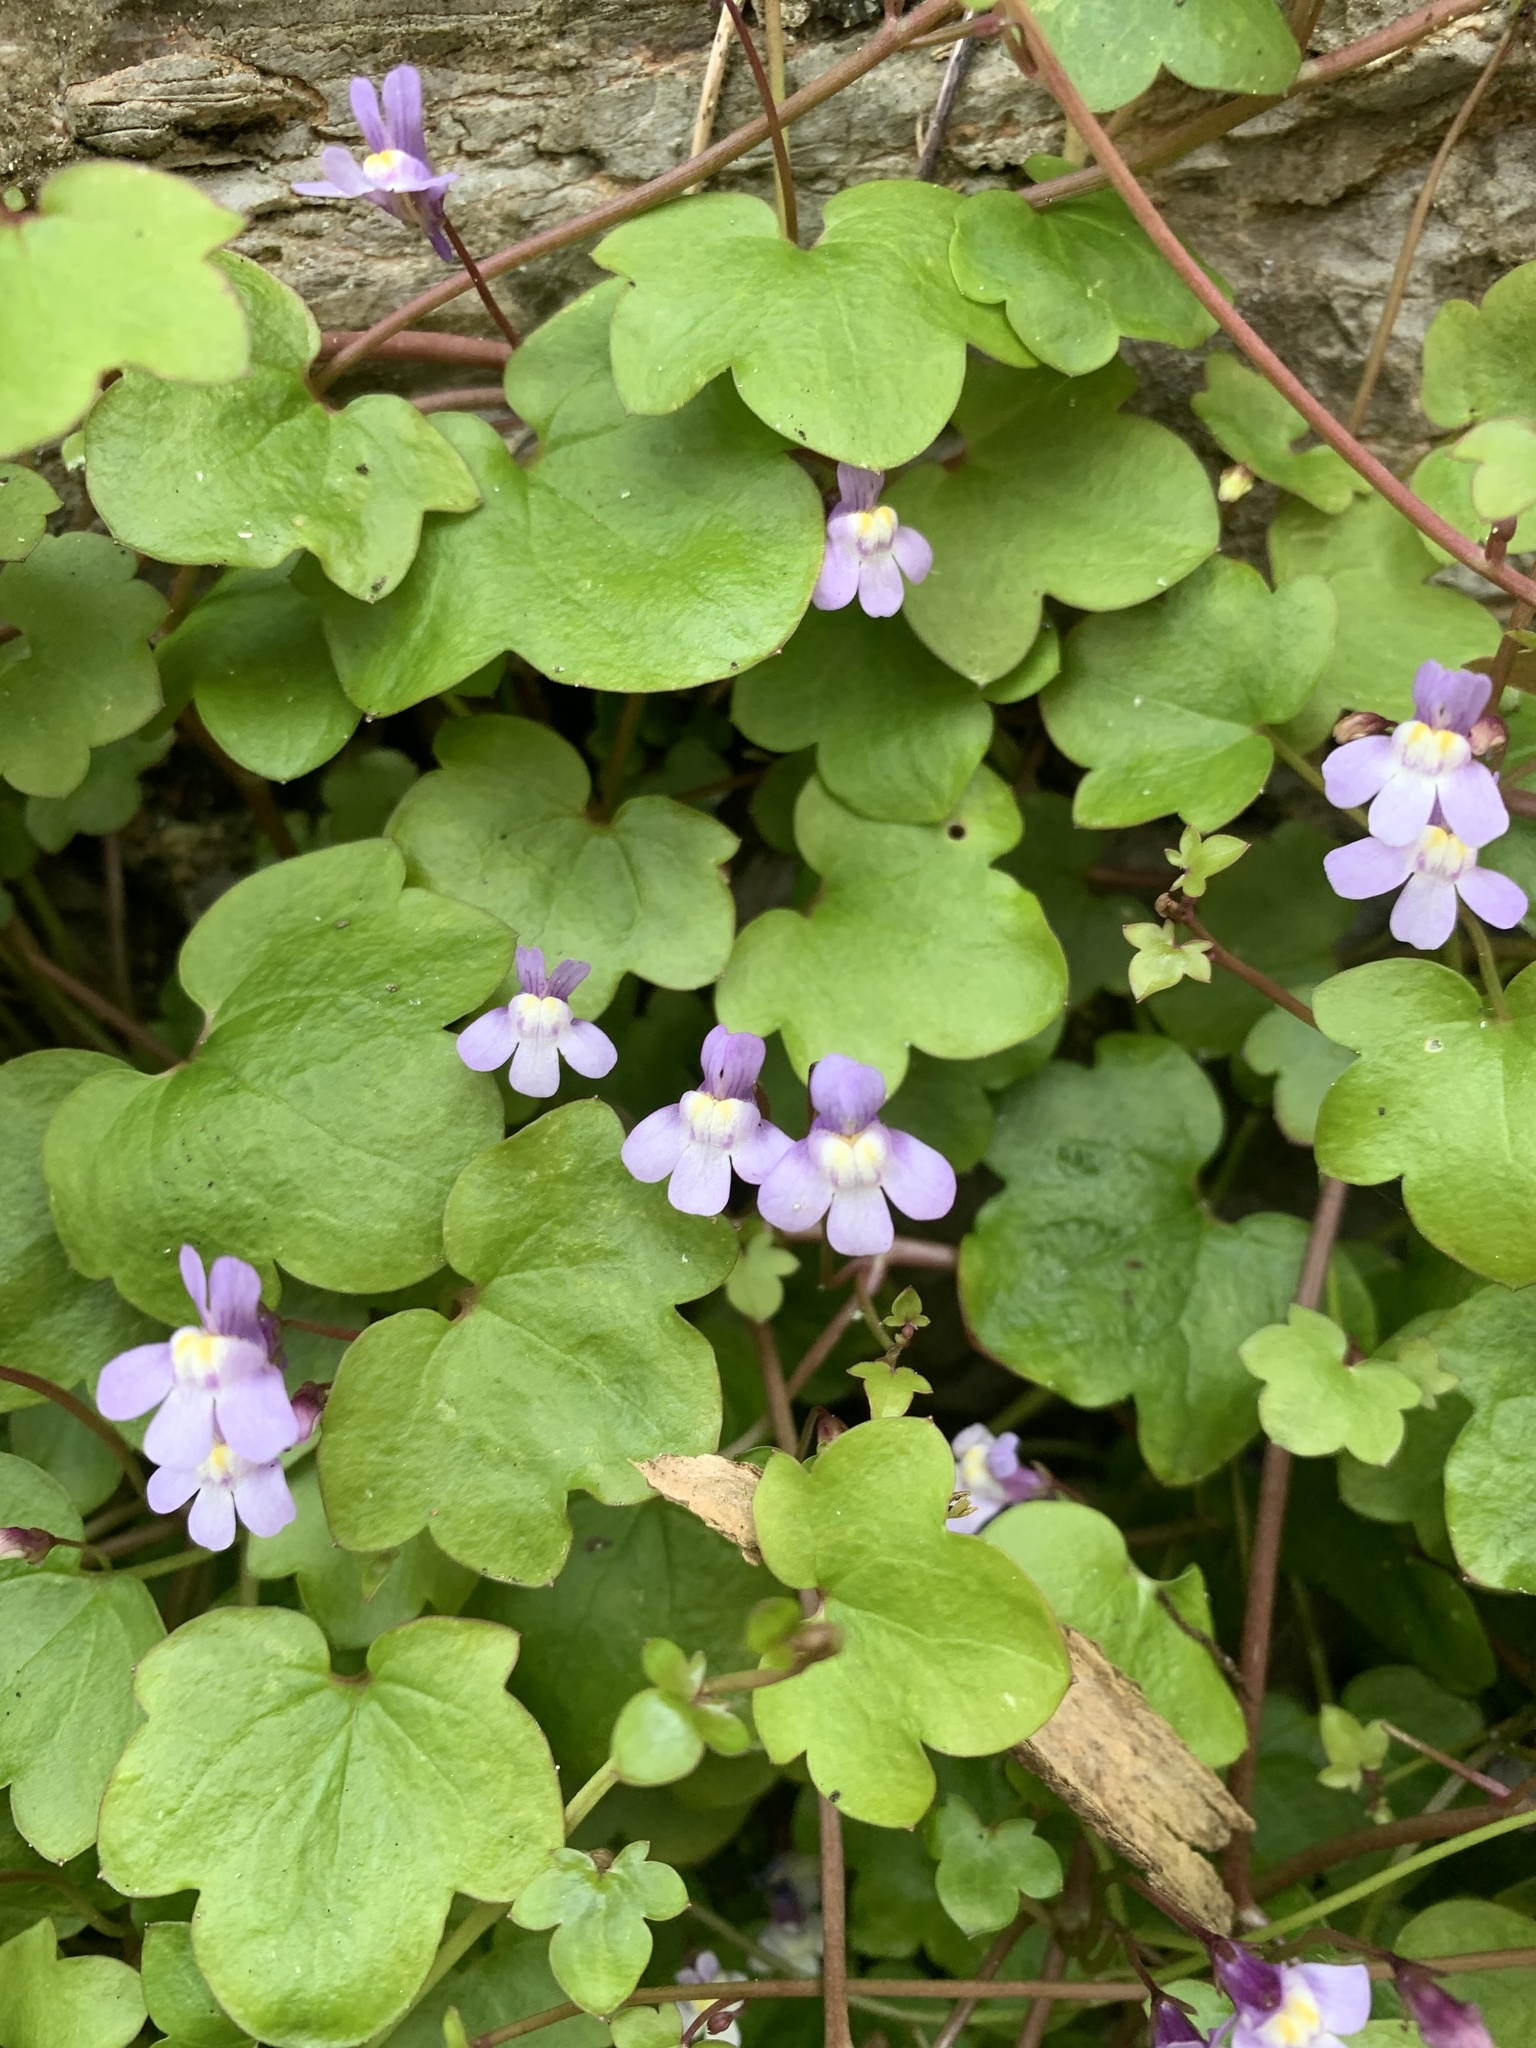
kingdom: Plantae
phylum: Tracheophyta
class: Magnoliopsida
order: Lamiales
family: Plantaginaceae
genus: Cymbalaria
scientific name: Cymbalaria muralis
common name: Ivy-leaved toadflax
